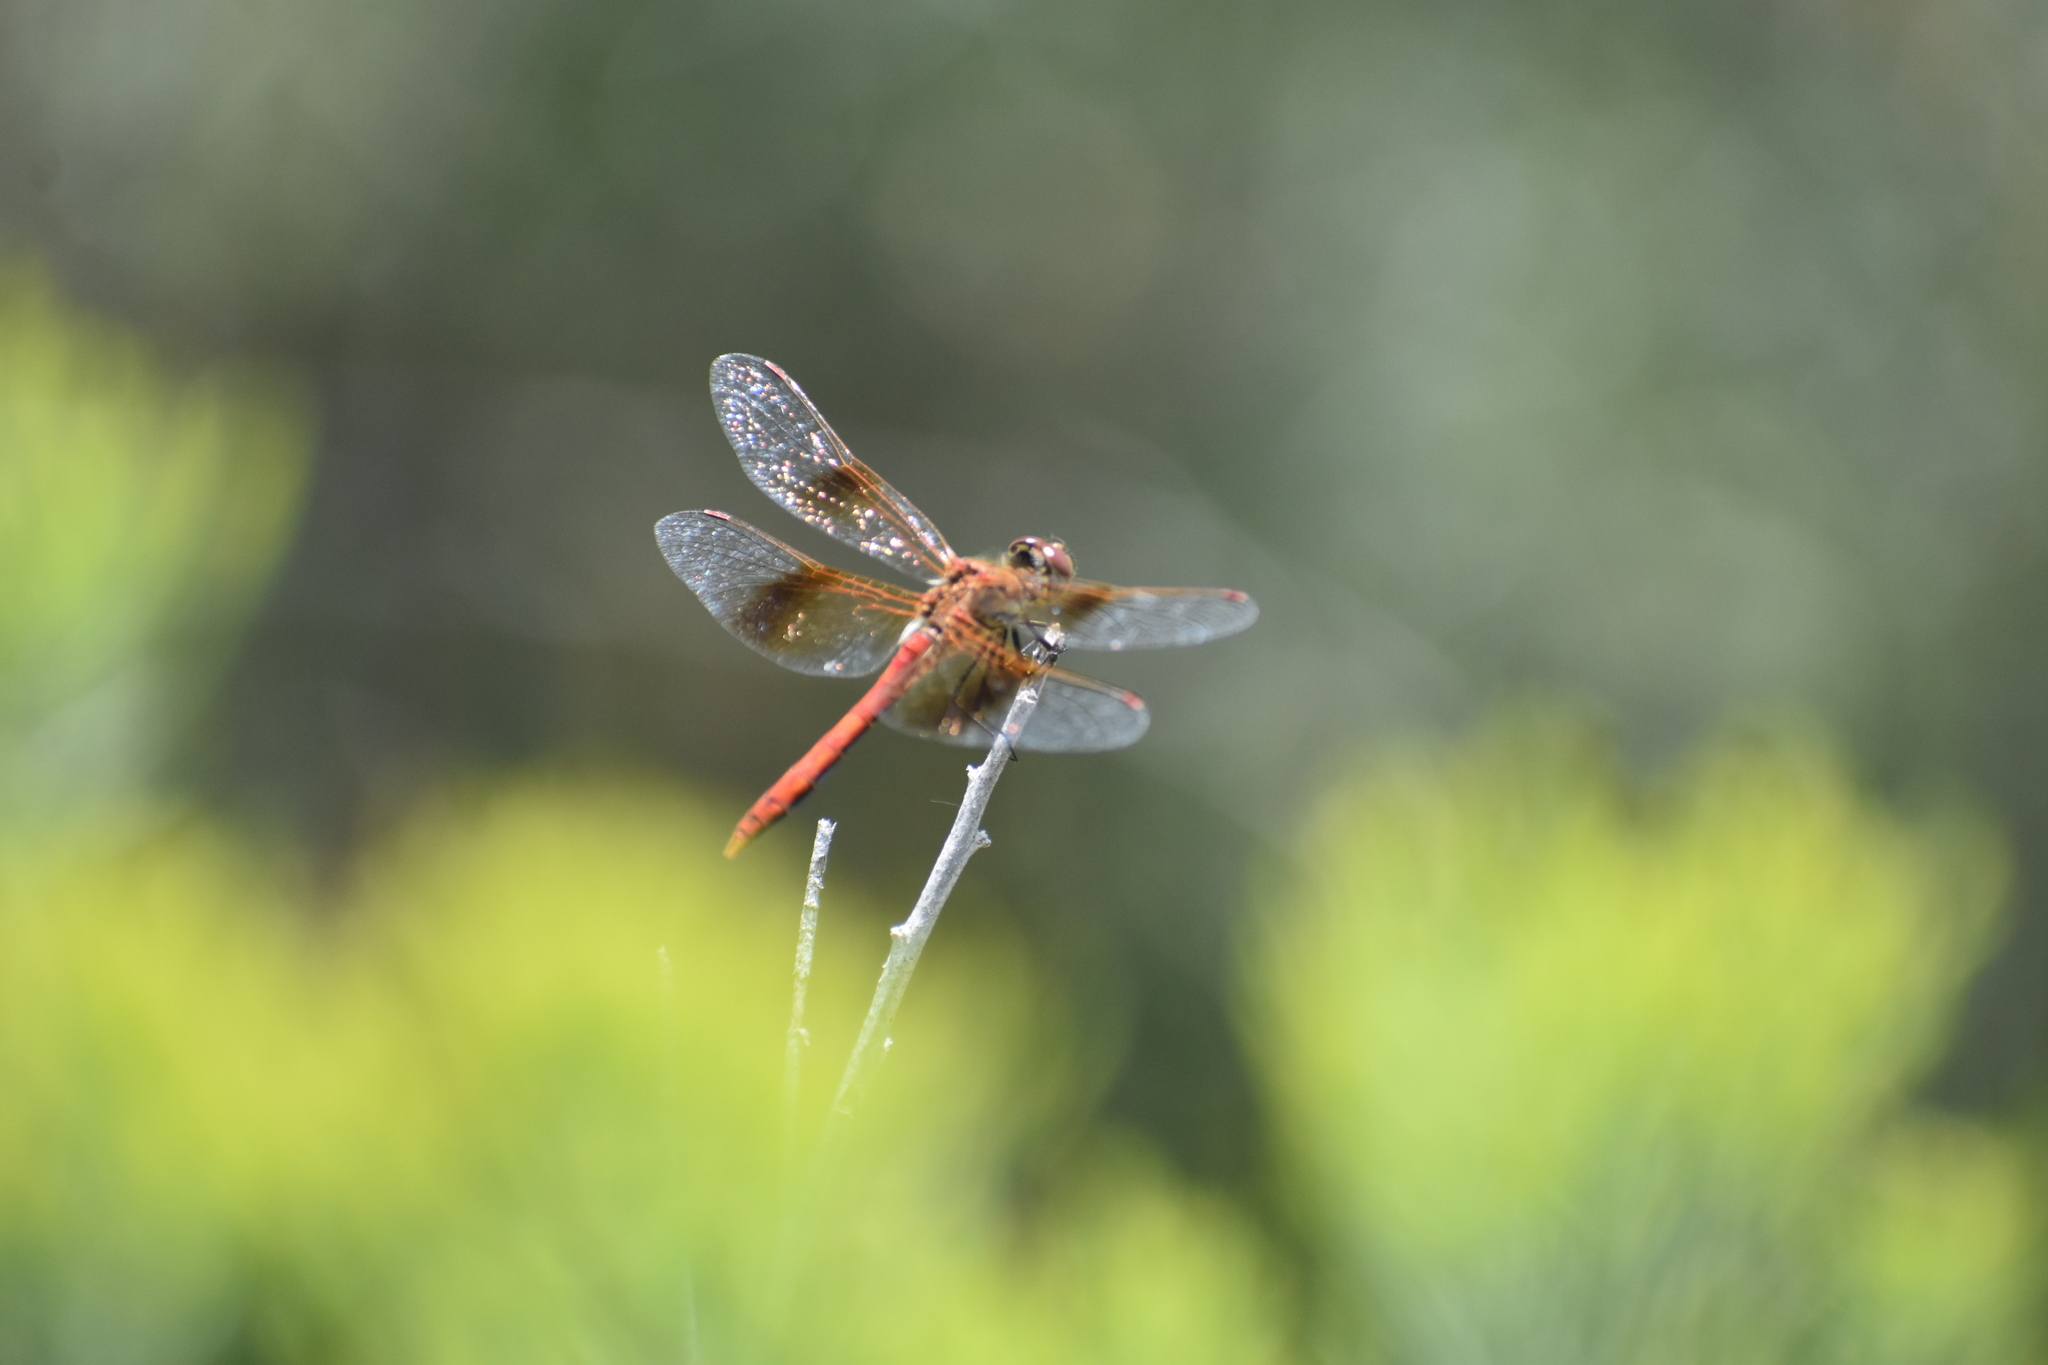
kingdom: Animalia
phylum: Arthropoda
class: Insecta
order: Odonata
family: Libellulidae
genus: Sympetrum
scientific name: Sympetrum semicinctum
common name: Band-winged meadowhawk
